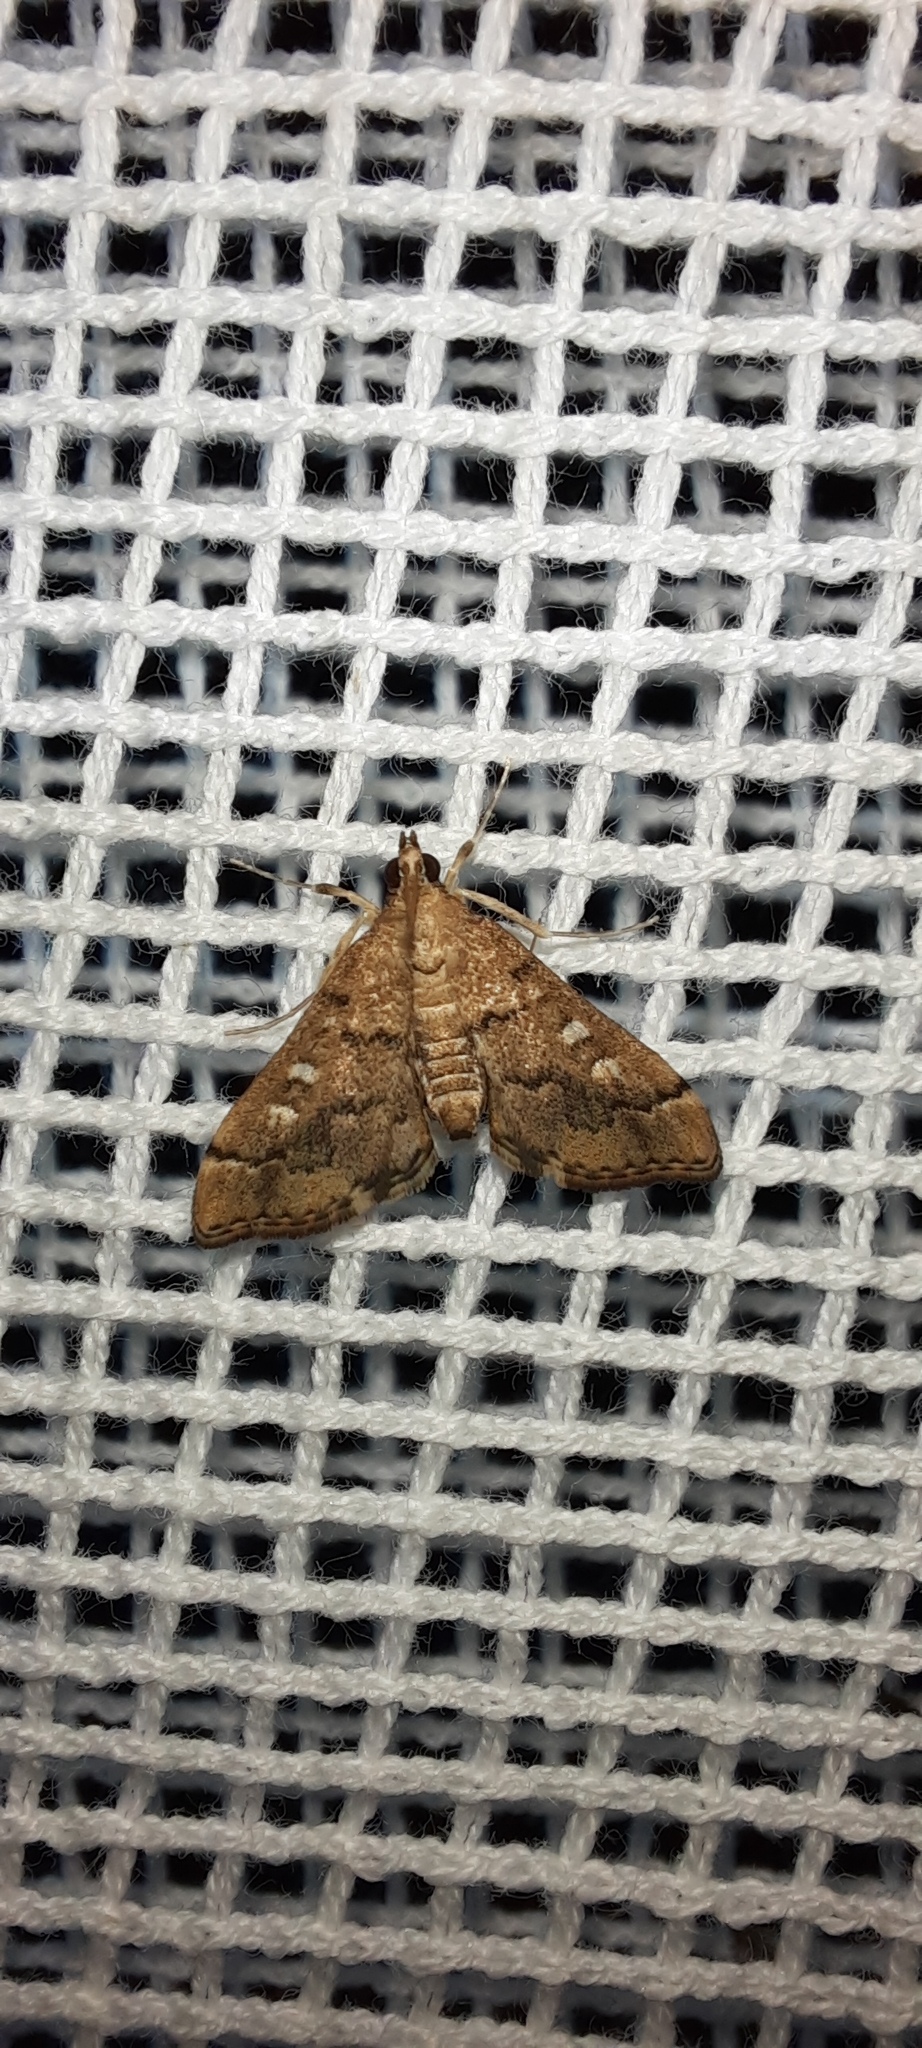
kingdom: Animalia
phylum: Arthropoda
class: Insecta
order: Lepidoptera
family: Crambidae
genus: Nacoleia
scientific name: Nacoleia rhoeoalis
